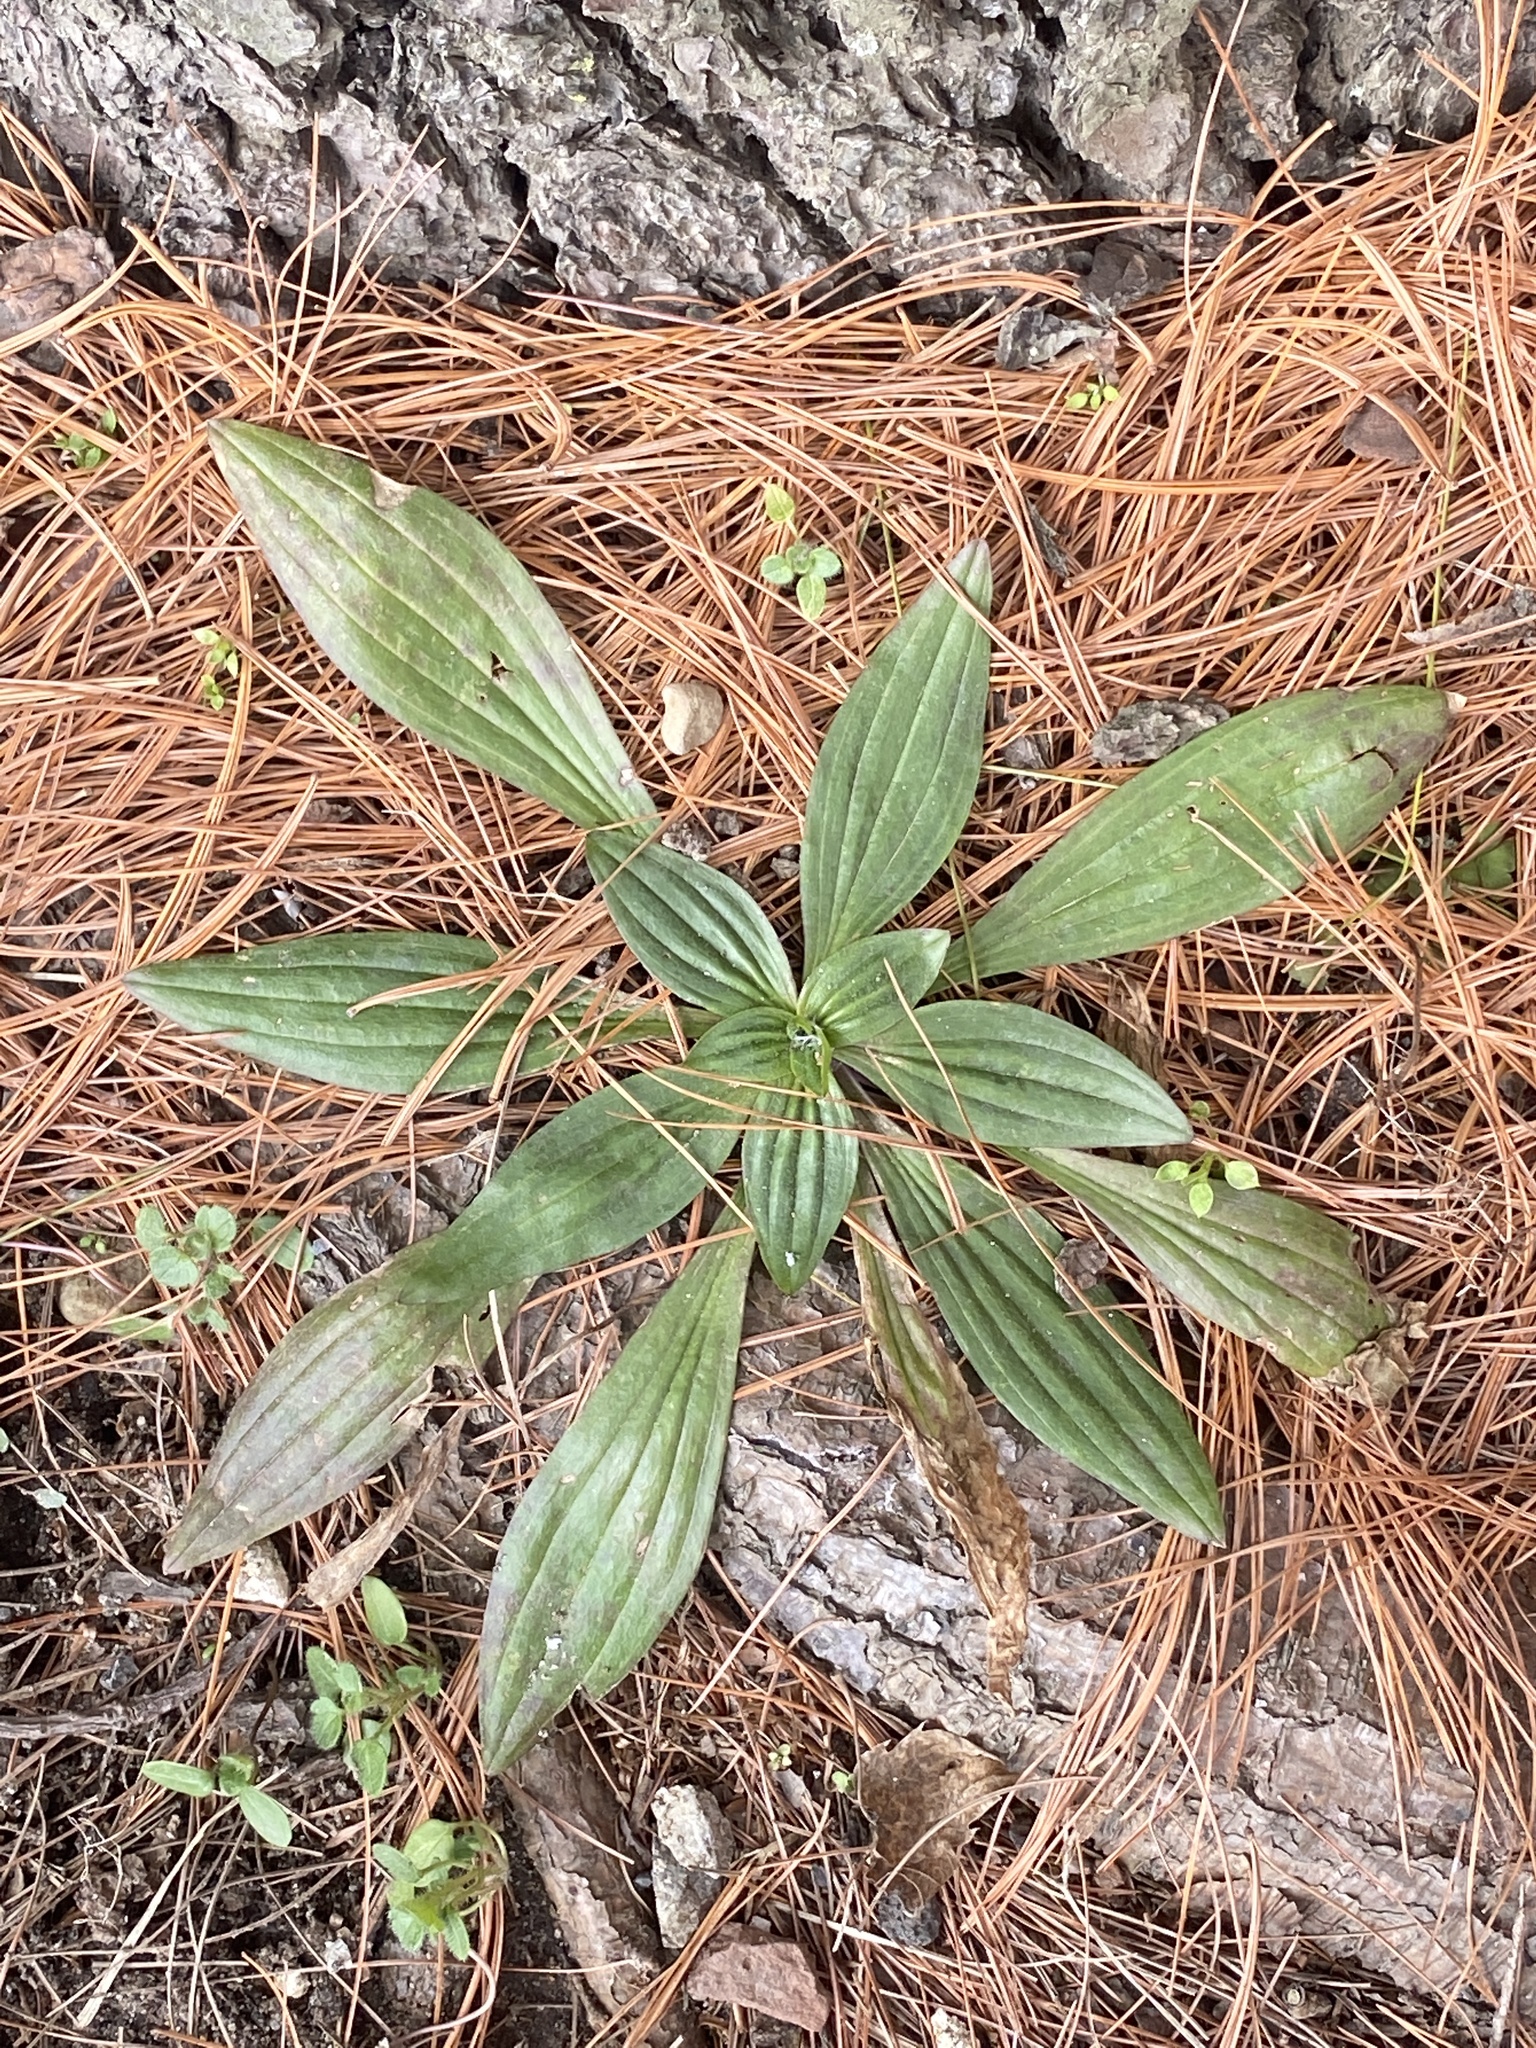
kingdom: Plantae
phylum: Tracheophyta
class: Magnoliopsida
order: Lamiales
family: Plantaginaceae
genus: Plantago
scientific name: Plantago lanceolata
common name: Ribwort plantain
